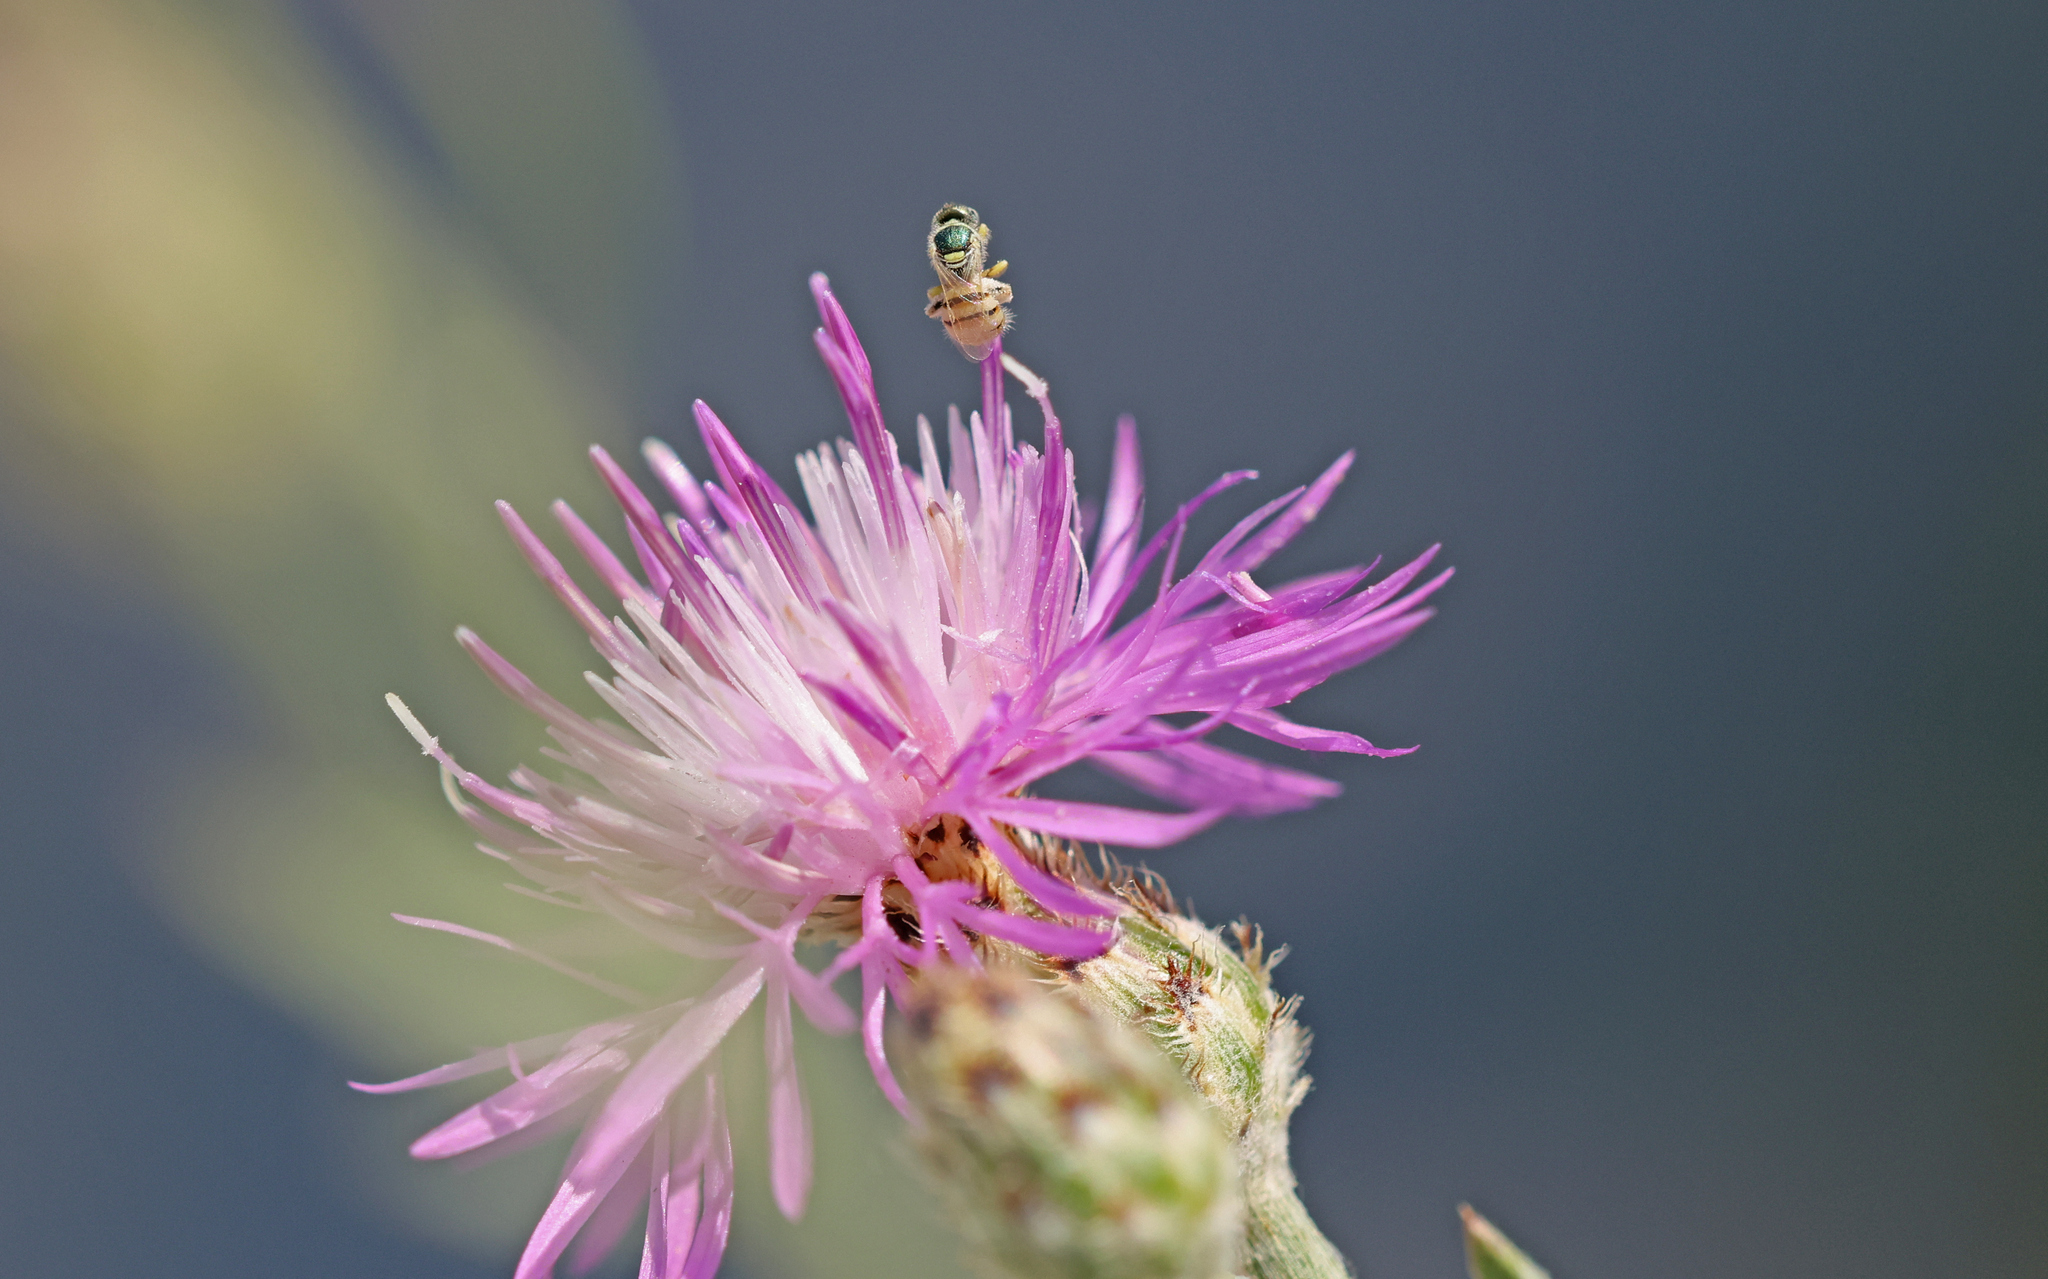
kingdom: Animalia
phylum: Arthropoda
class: Insecta
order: Hymenoptera
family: Halictidae
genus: Nomioides
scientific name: Nomioides minutissimus
